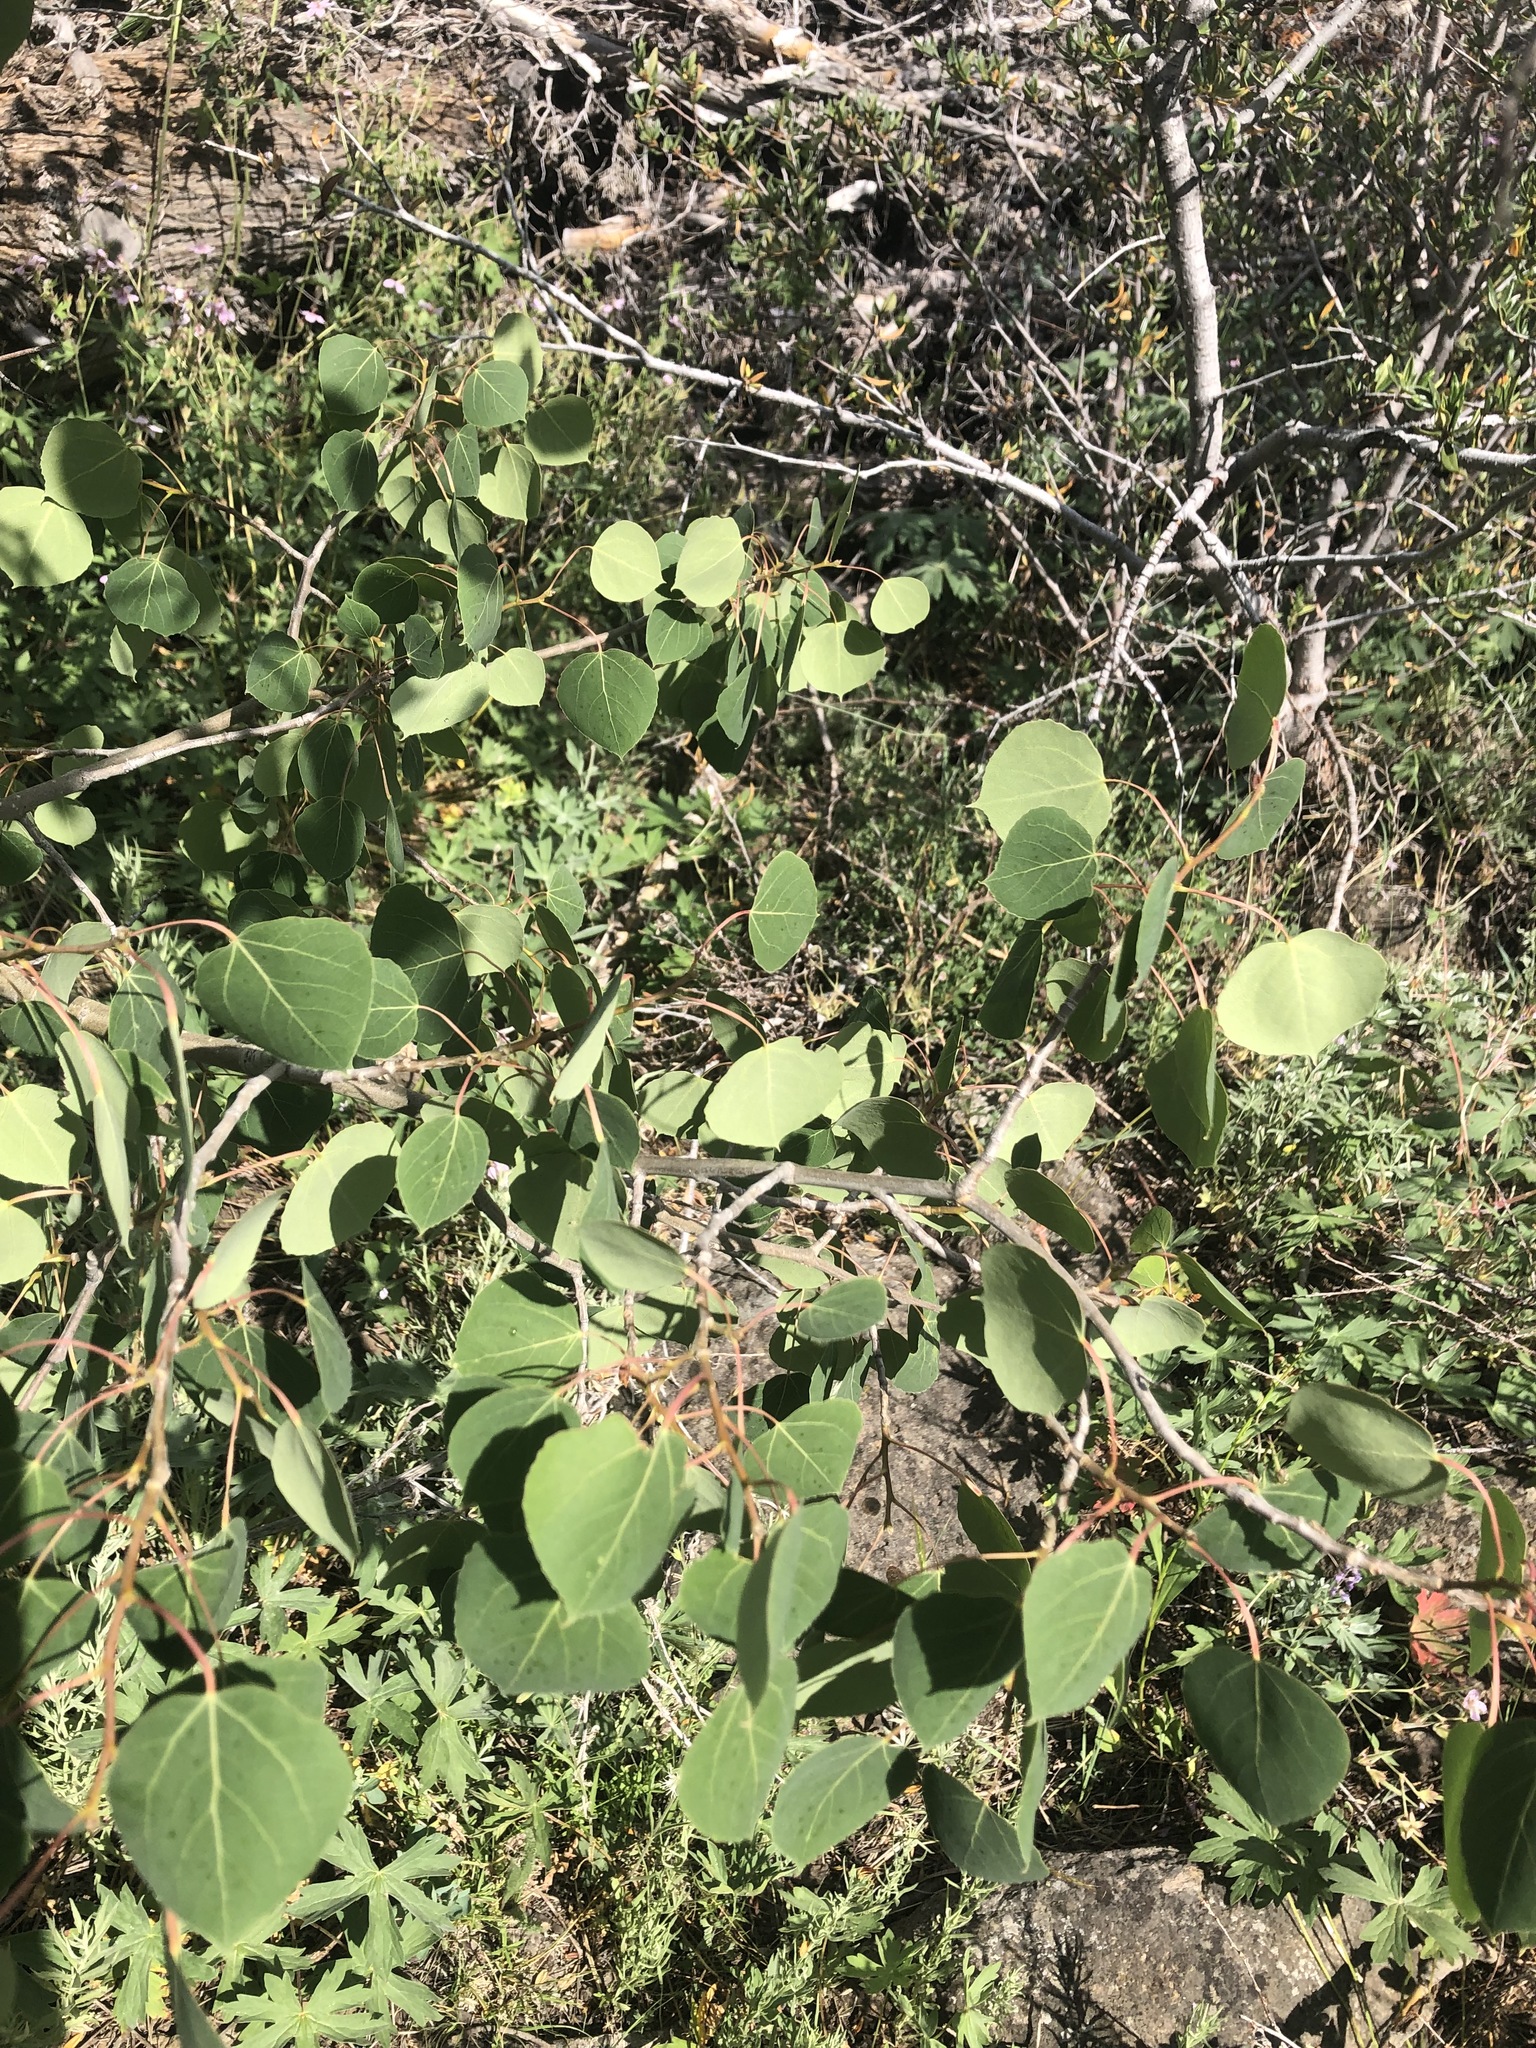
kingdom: Plantae
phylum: Tracheophyta
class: Magnoliopsida
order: Malpighiales
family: Salicaceae
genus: Populus
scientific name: Populus tremuloides
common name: Quaking aspen
